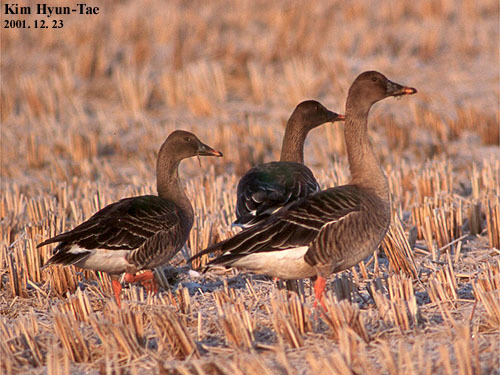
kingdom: Animalia
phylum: Chordata
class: Aves
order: Anseriformes
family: Anatidae
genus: Anser
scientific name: Anser serrirostris
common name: Tundra bean goose
